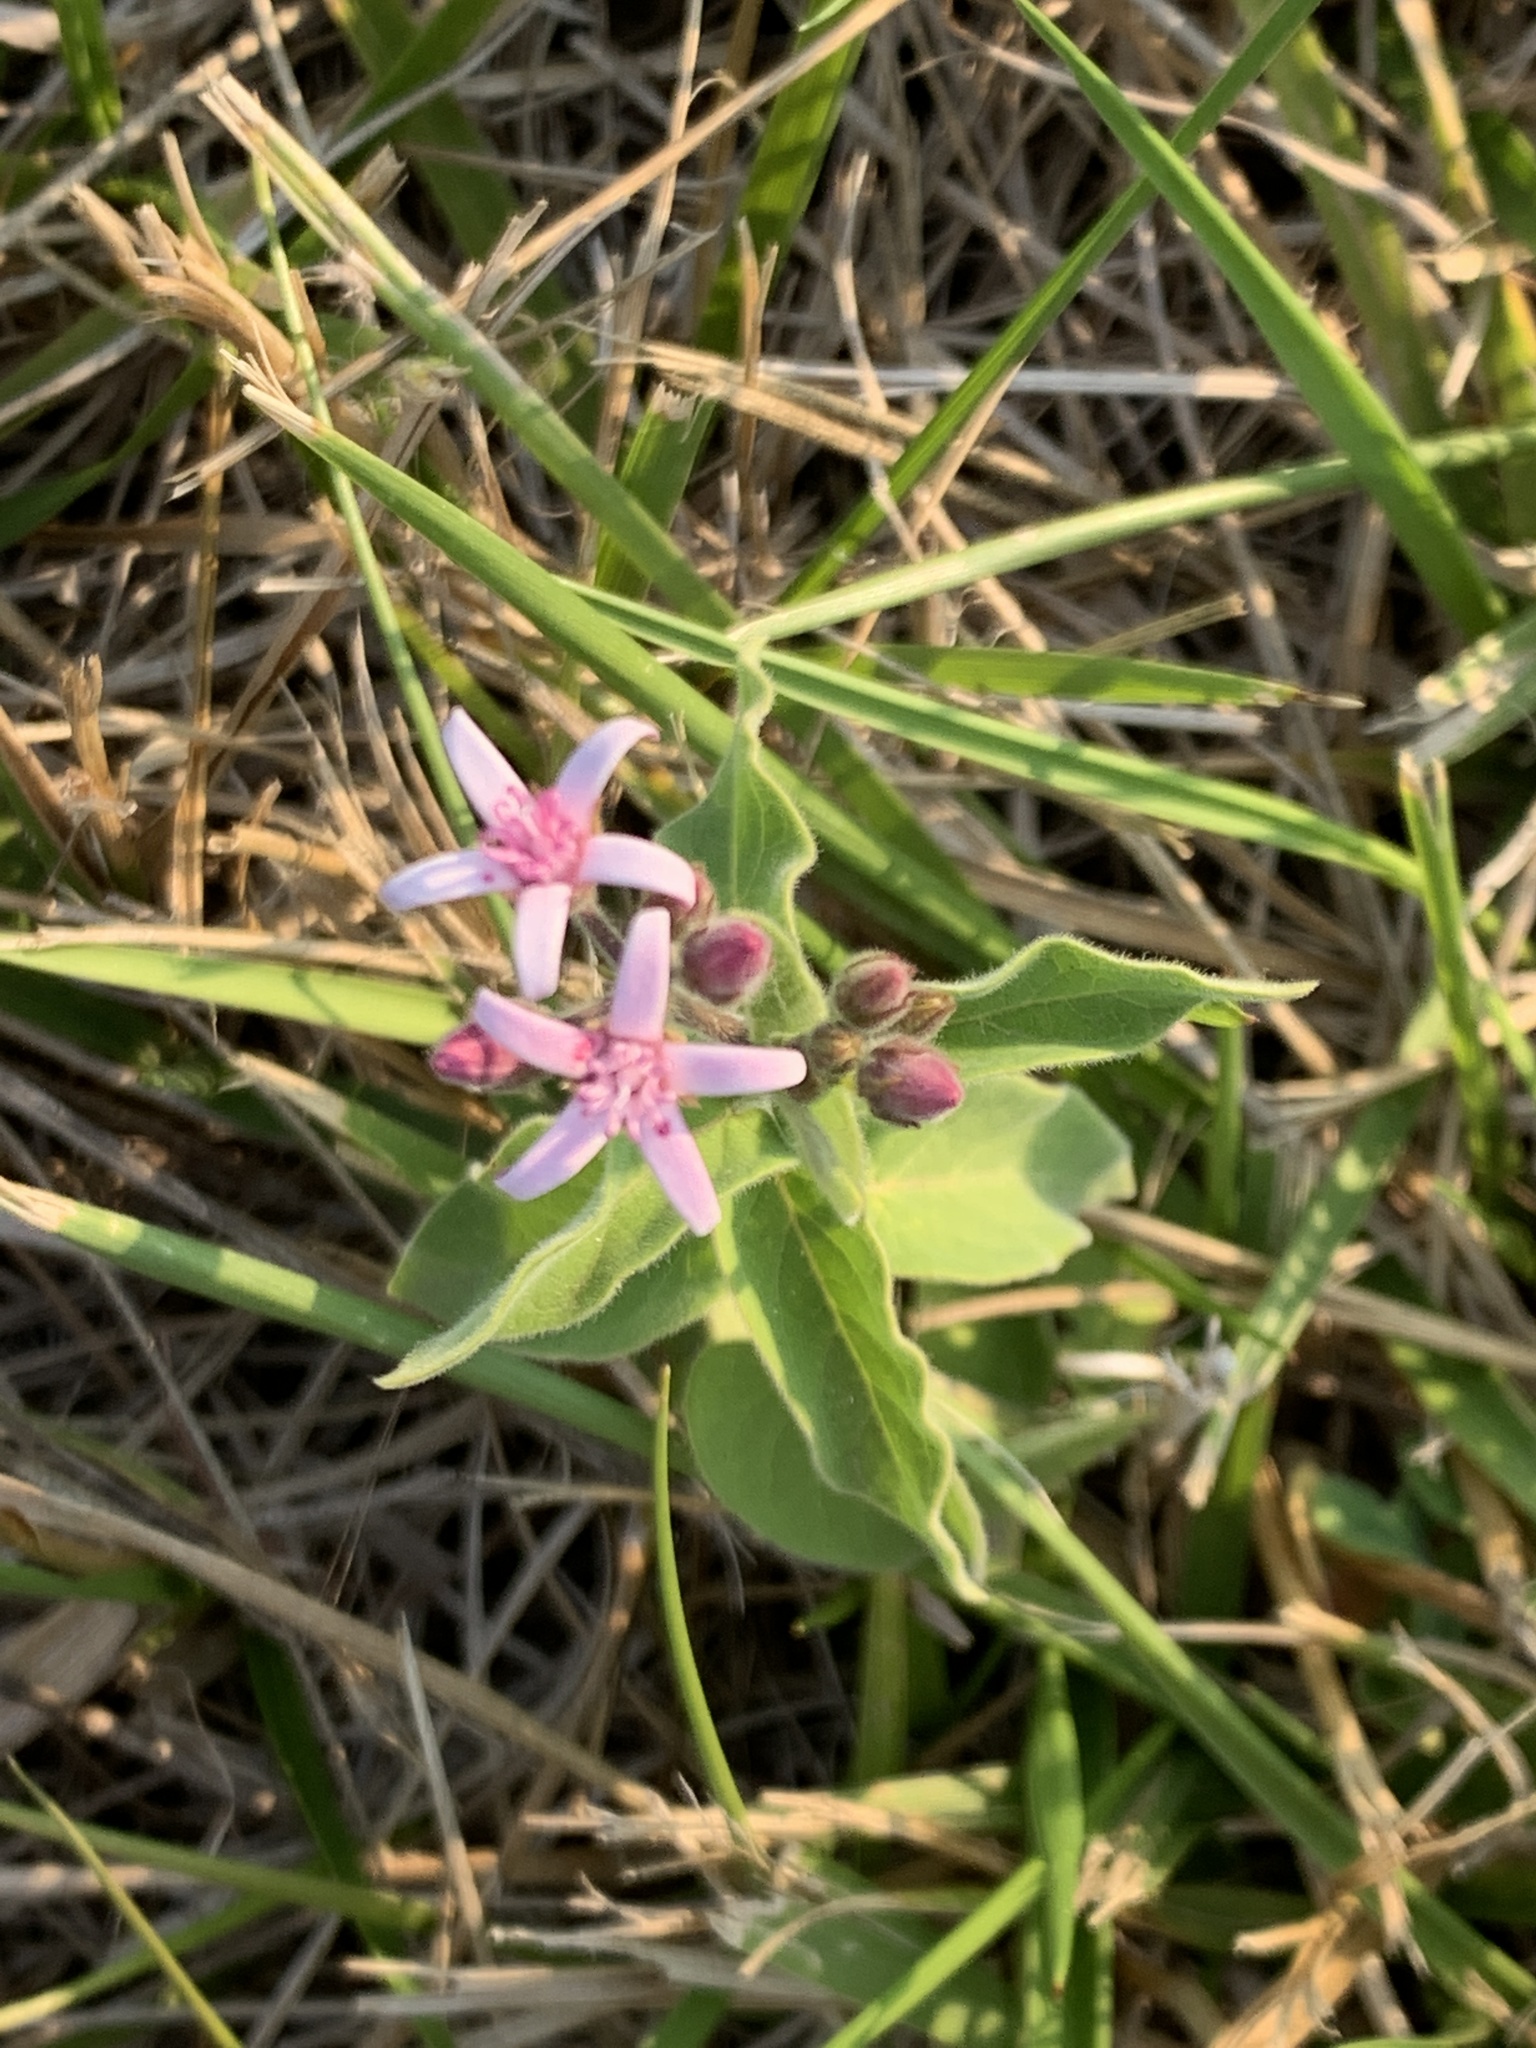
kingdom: Plantae
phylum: Tracheophyta
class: Magnoliopsida
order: Gentianales
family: Apocynaceae
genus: Oxypetalum
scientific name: Oxypetalum solanoides
